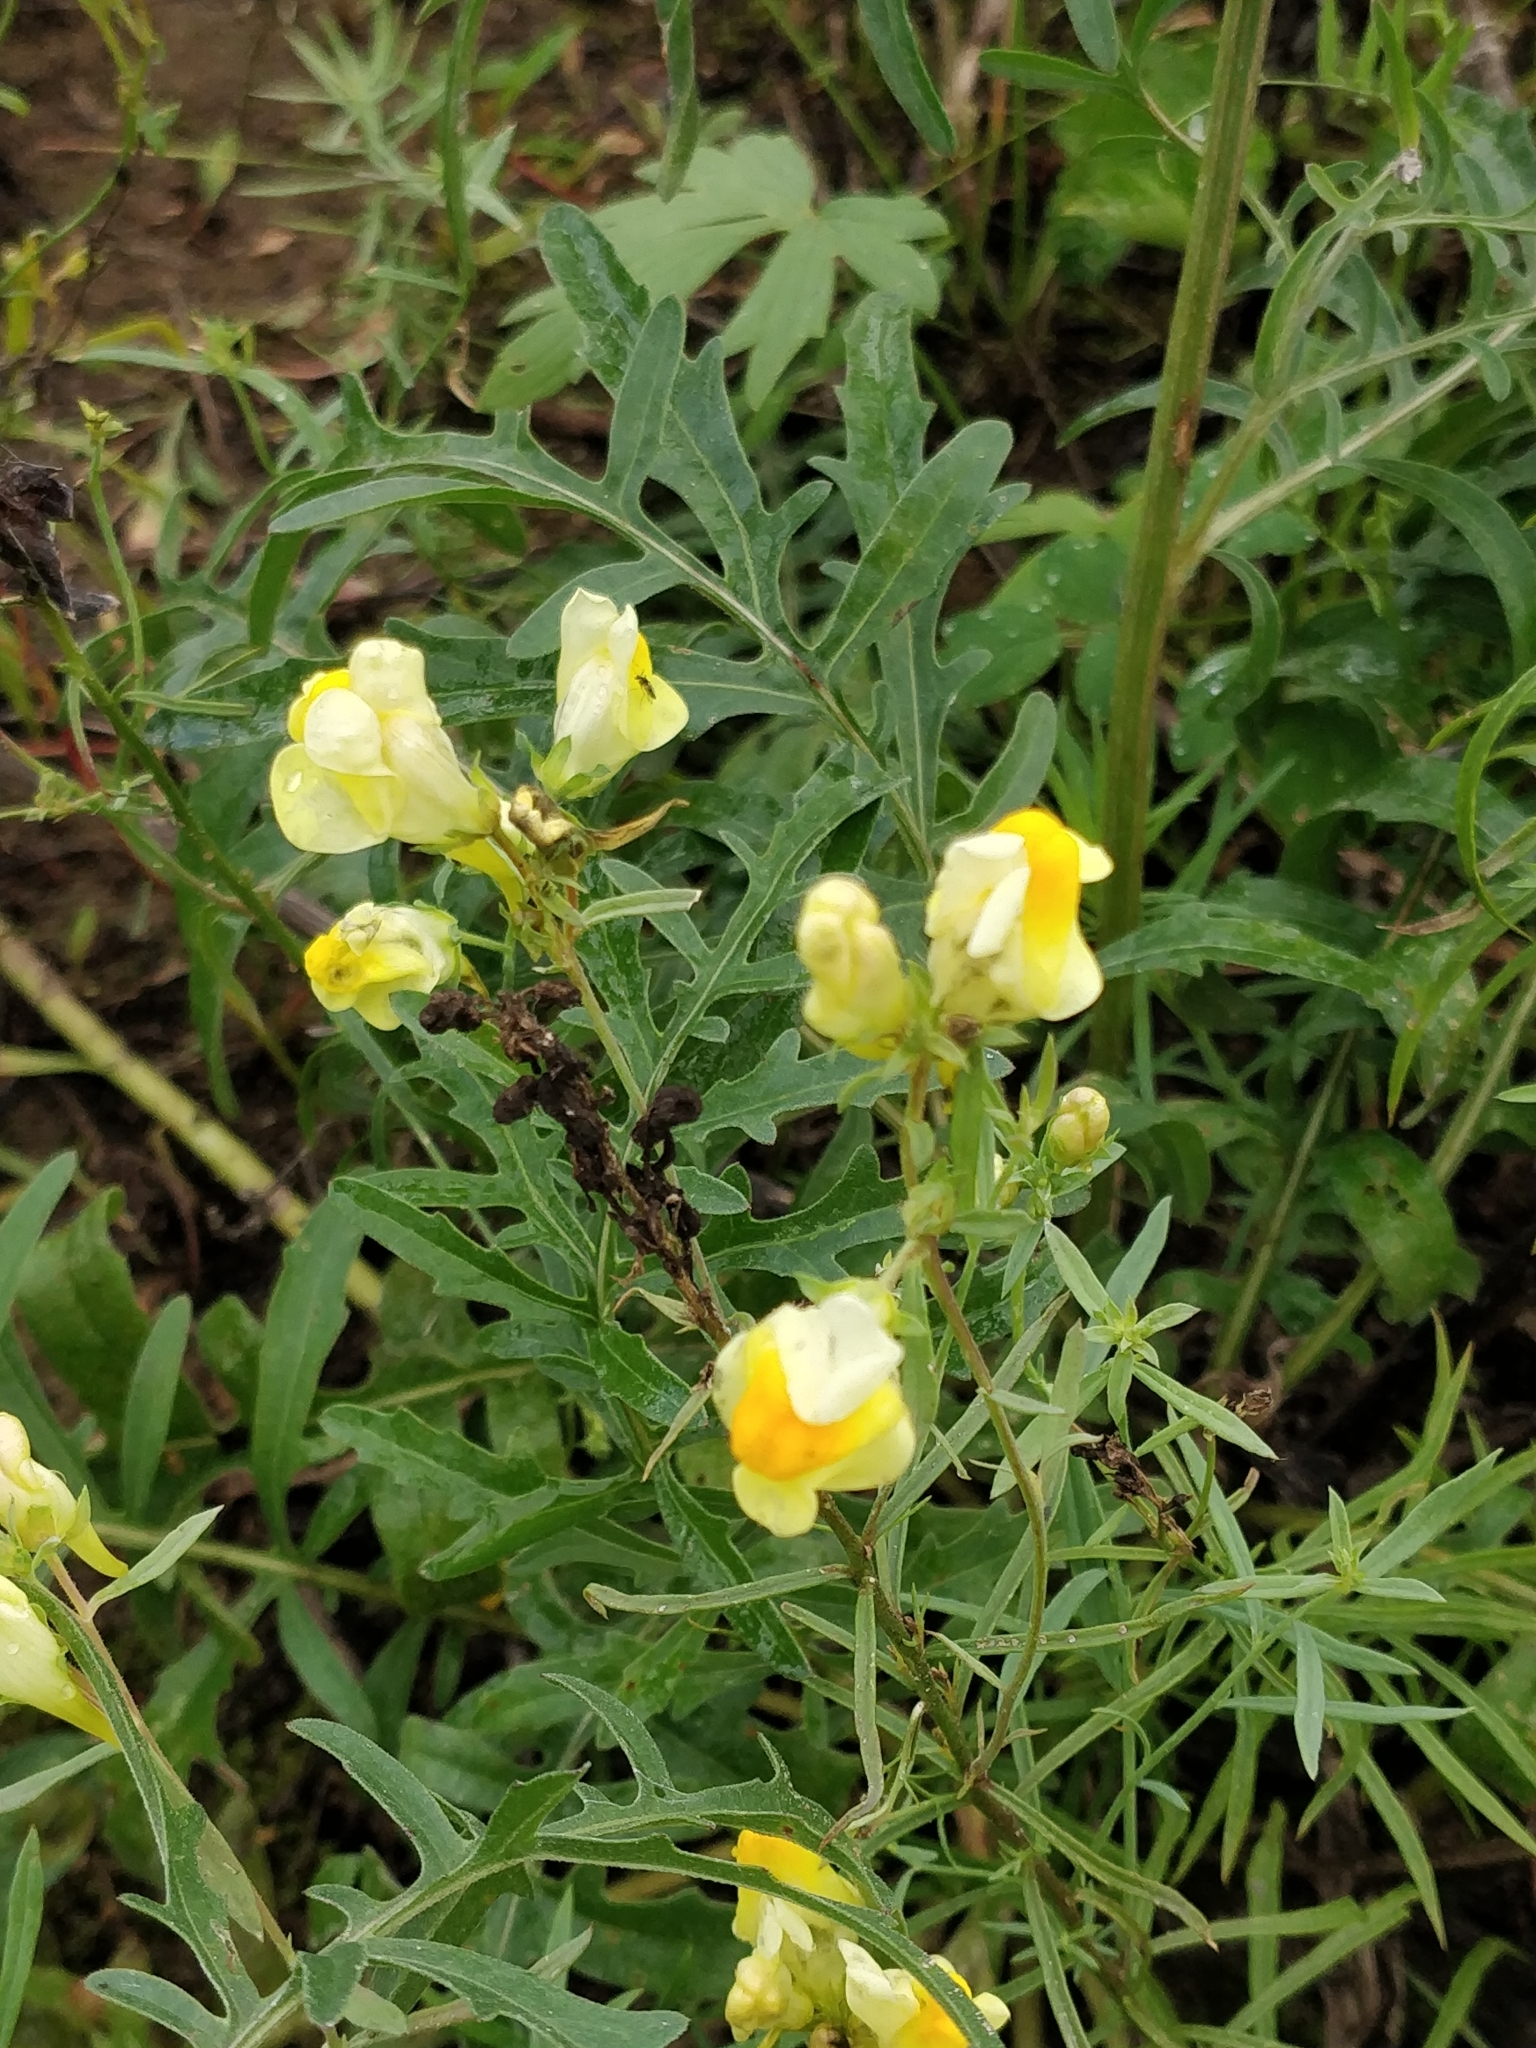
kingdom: Plantae
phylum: Tracheophyta
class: Magnoliopsida
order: Lamiales
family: Plantaginaceae
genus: Linaria
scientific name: Linaria vulgaris
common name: Butter and eggs
